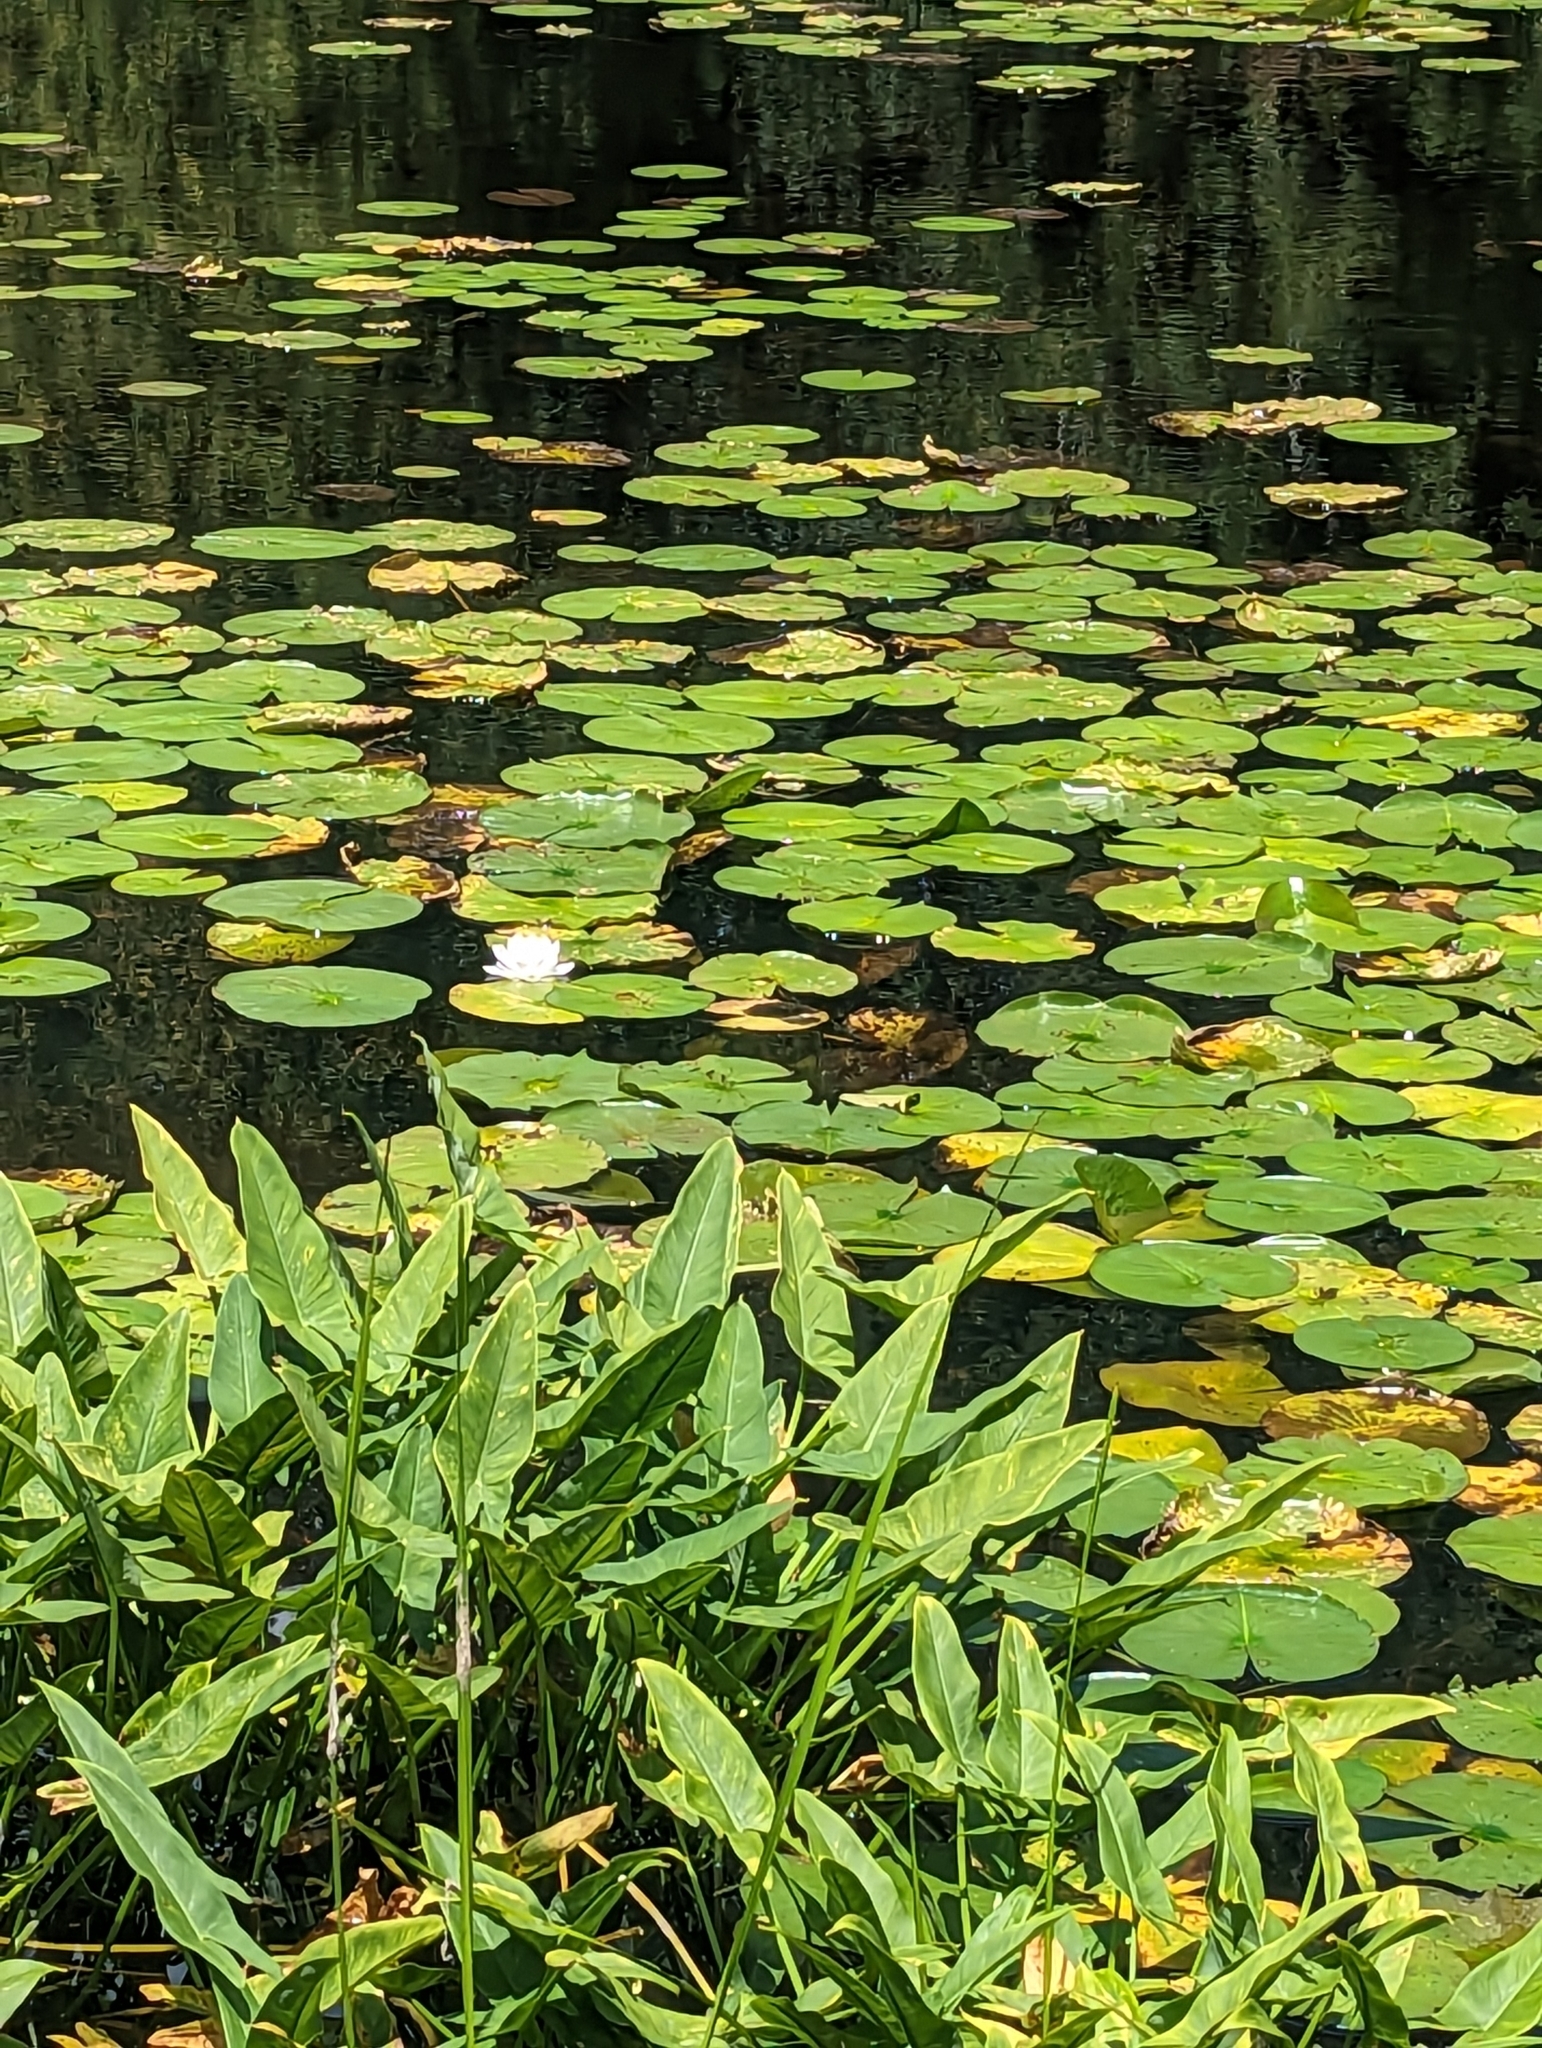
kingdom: Plantae
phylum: Tracheophyta
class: Magnoliopsida
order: Nymphaeales
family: Nymphaeaceae
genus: Nymphaea
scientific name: Nymphaea odorata
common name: Fragrant water-lily
